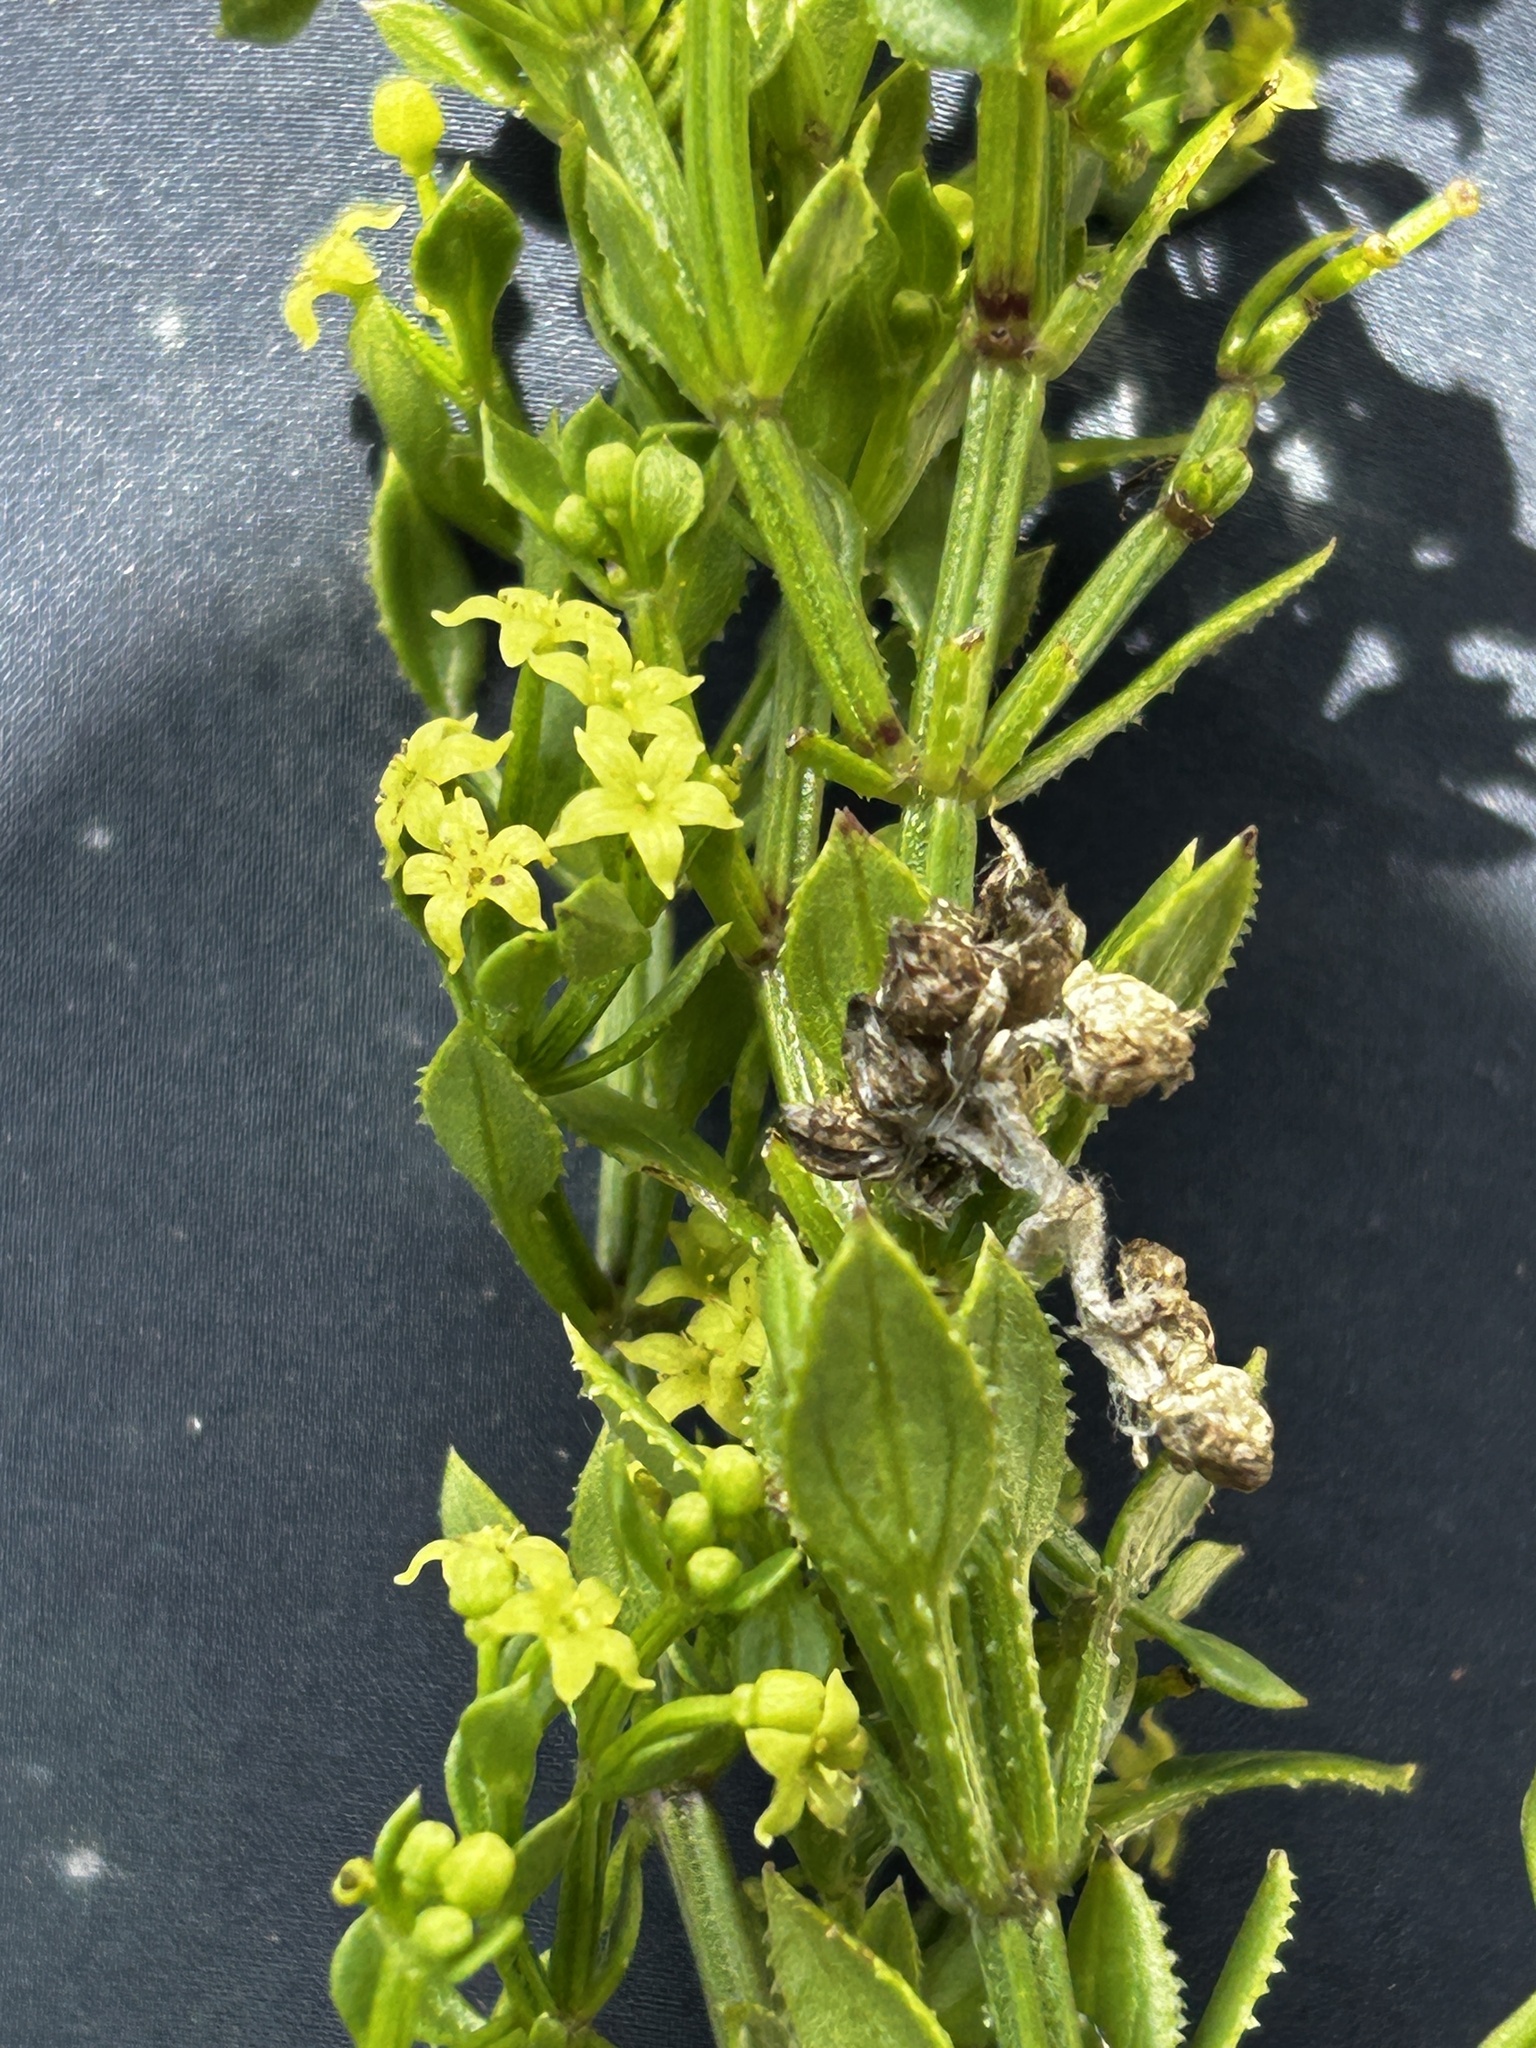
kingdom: Plantae
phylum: Tracheophyta
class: Magnoliopsida
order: Gentianales
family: Rubiaceae
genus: Rubia
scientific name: Rubia petiolaris
